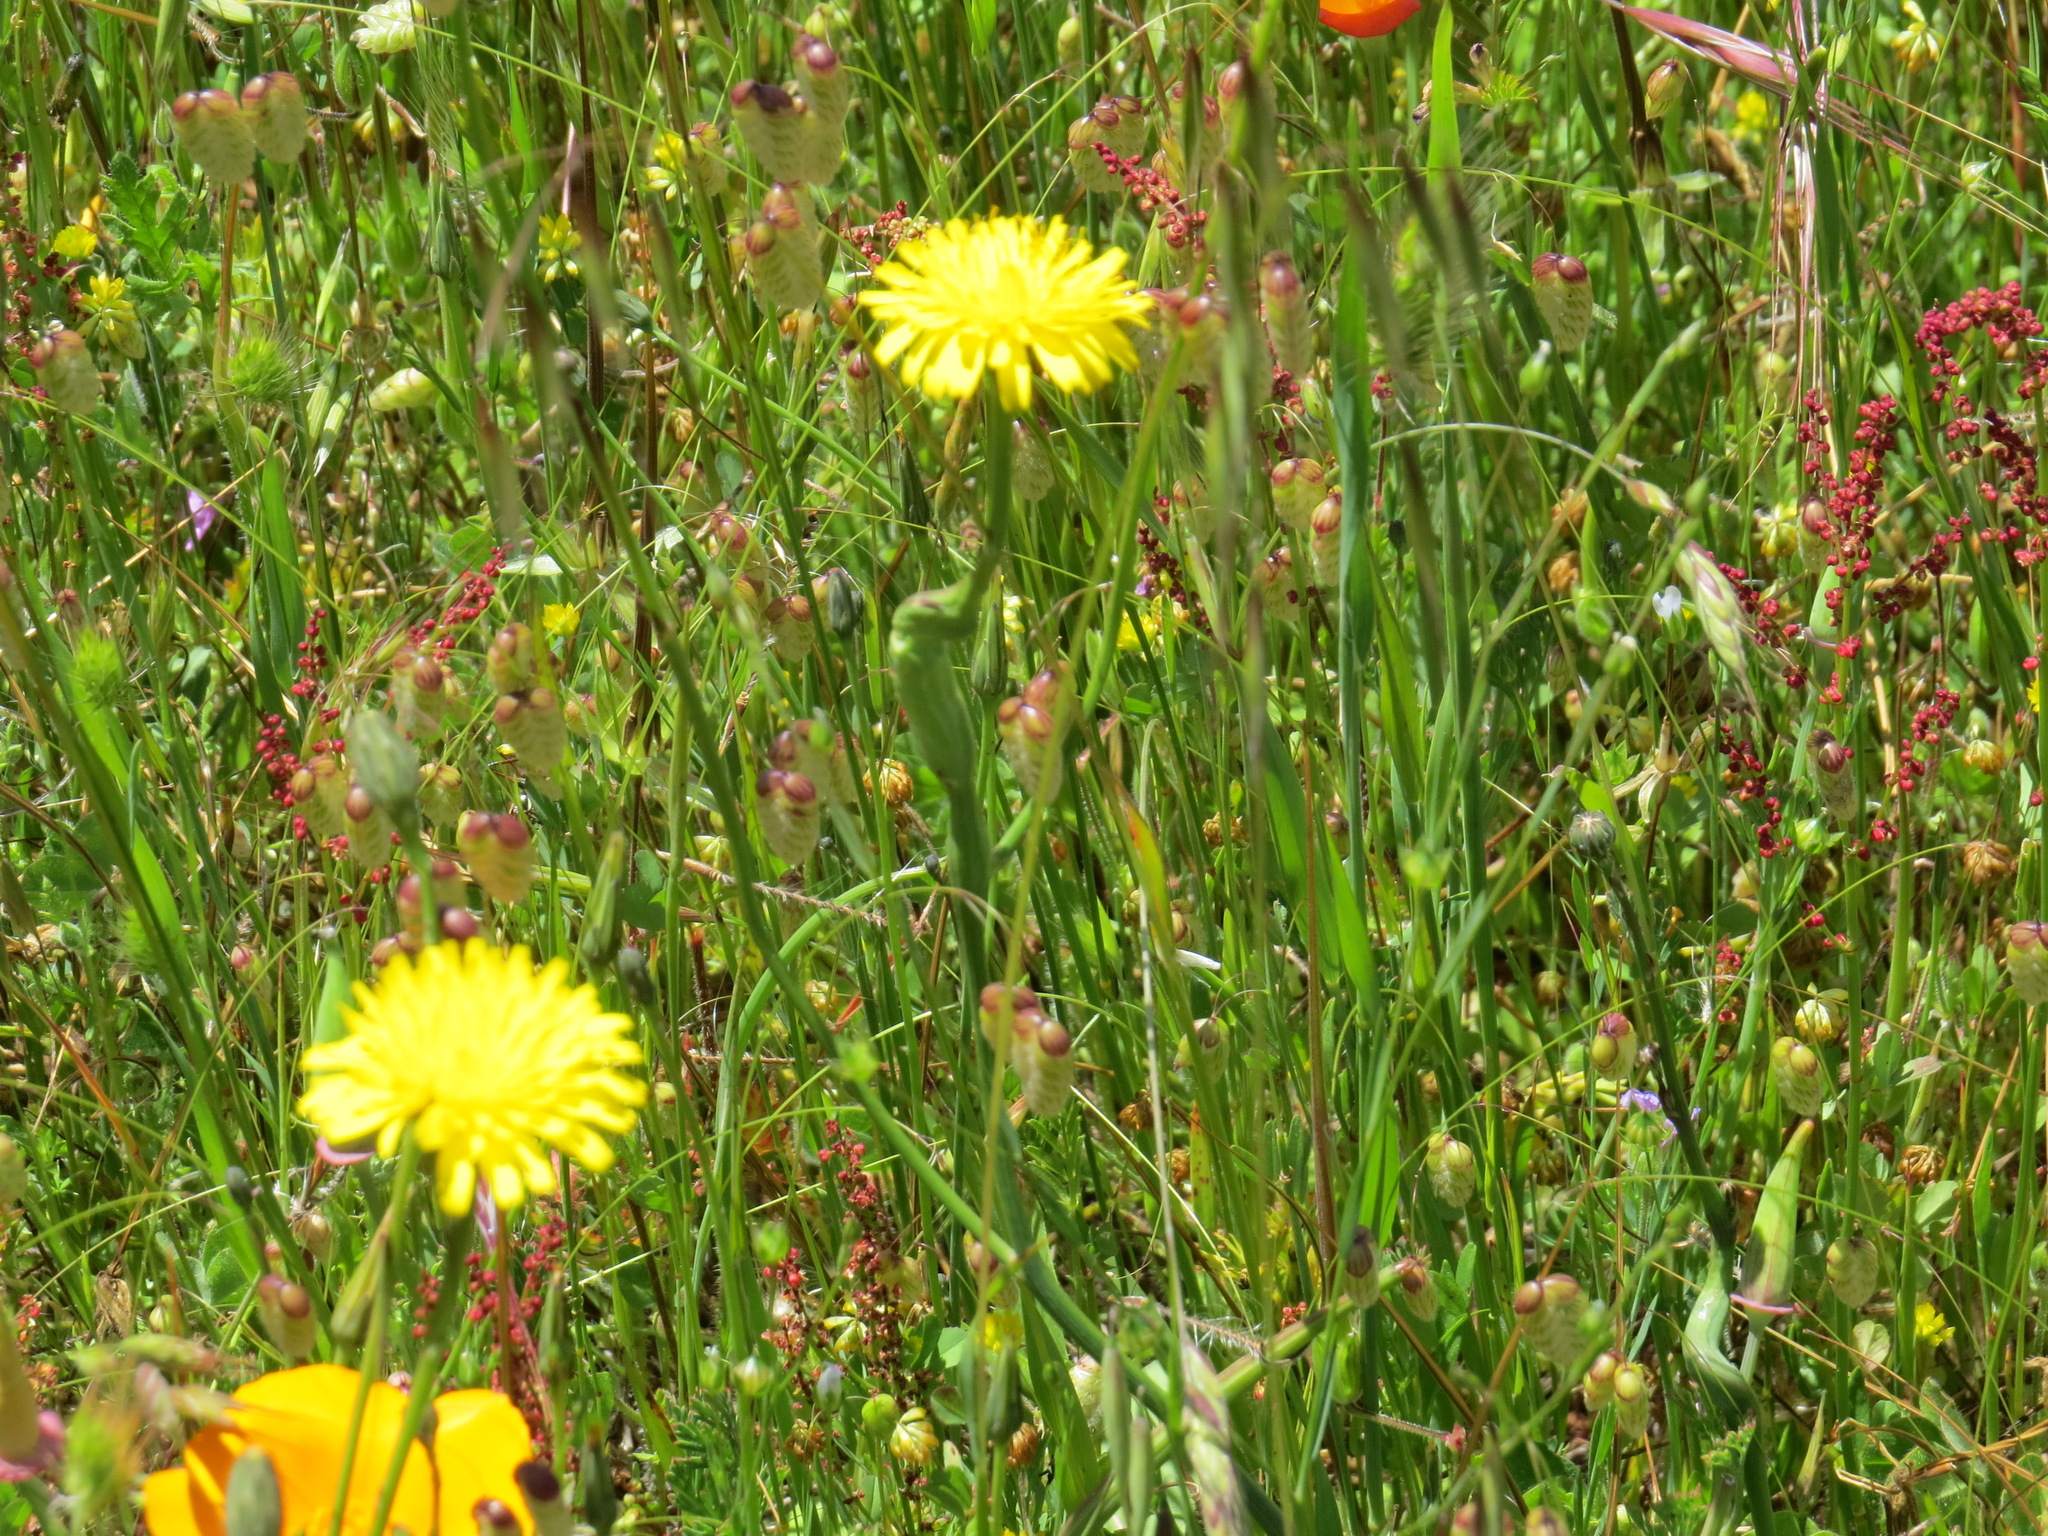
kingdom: Animalia
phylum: Arthropoda
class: Insecta
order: Hymenoptera
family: Cynipidae
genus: Phanacis
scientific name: Phanacis hypochoeridis
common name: Gall wasp
